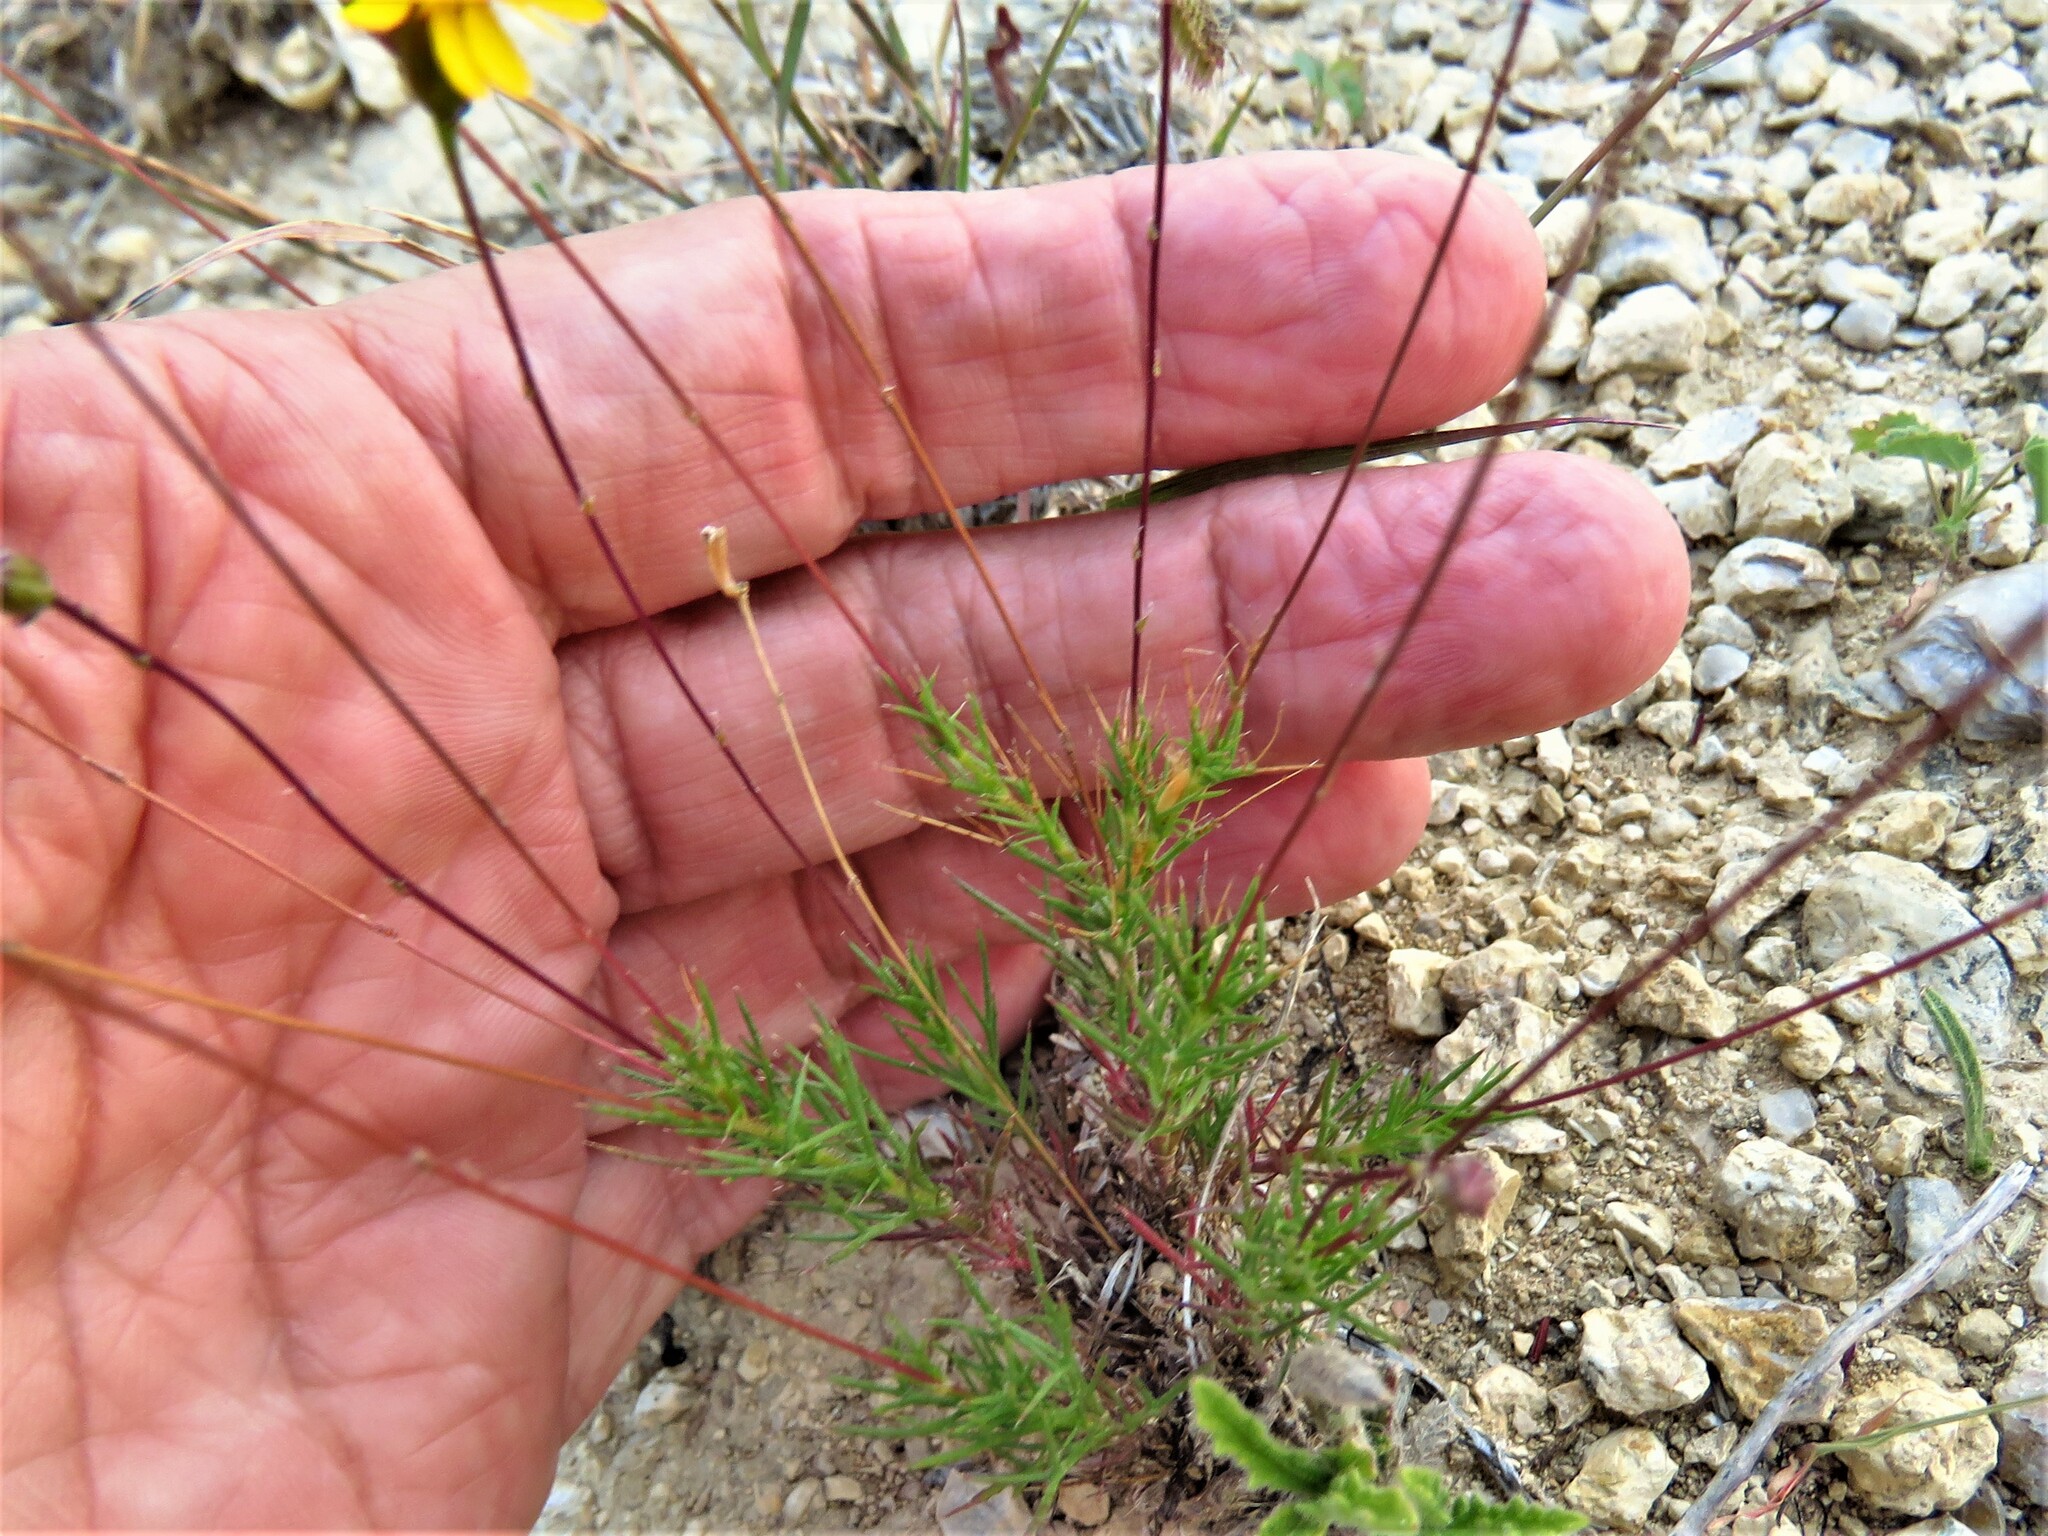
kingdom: Plantae
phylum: Tracheophyta
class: Magnoliopsida
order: Asterales
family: Asteraceae
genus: Thymophylla
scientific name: Thymophylla pentachaeta
